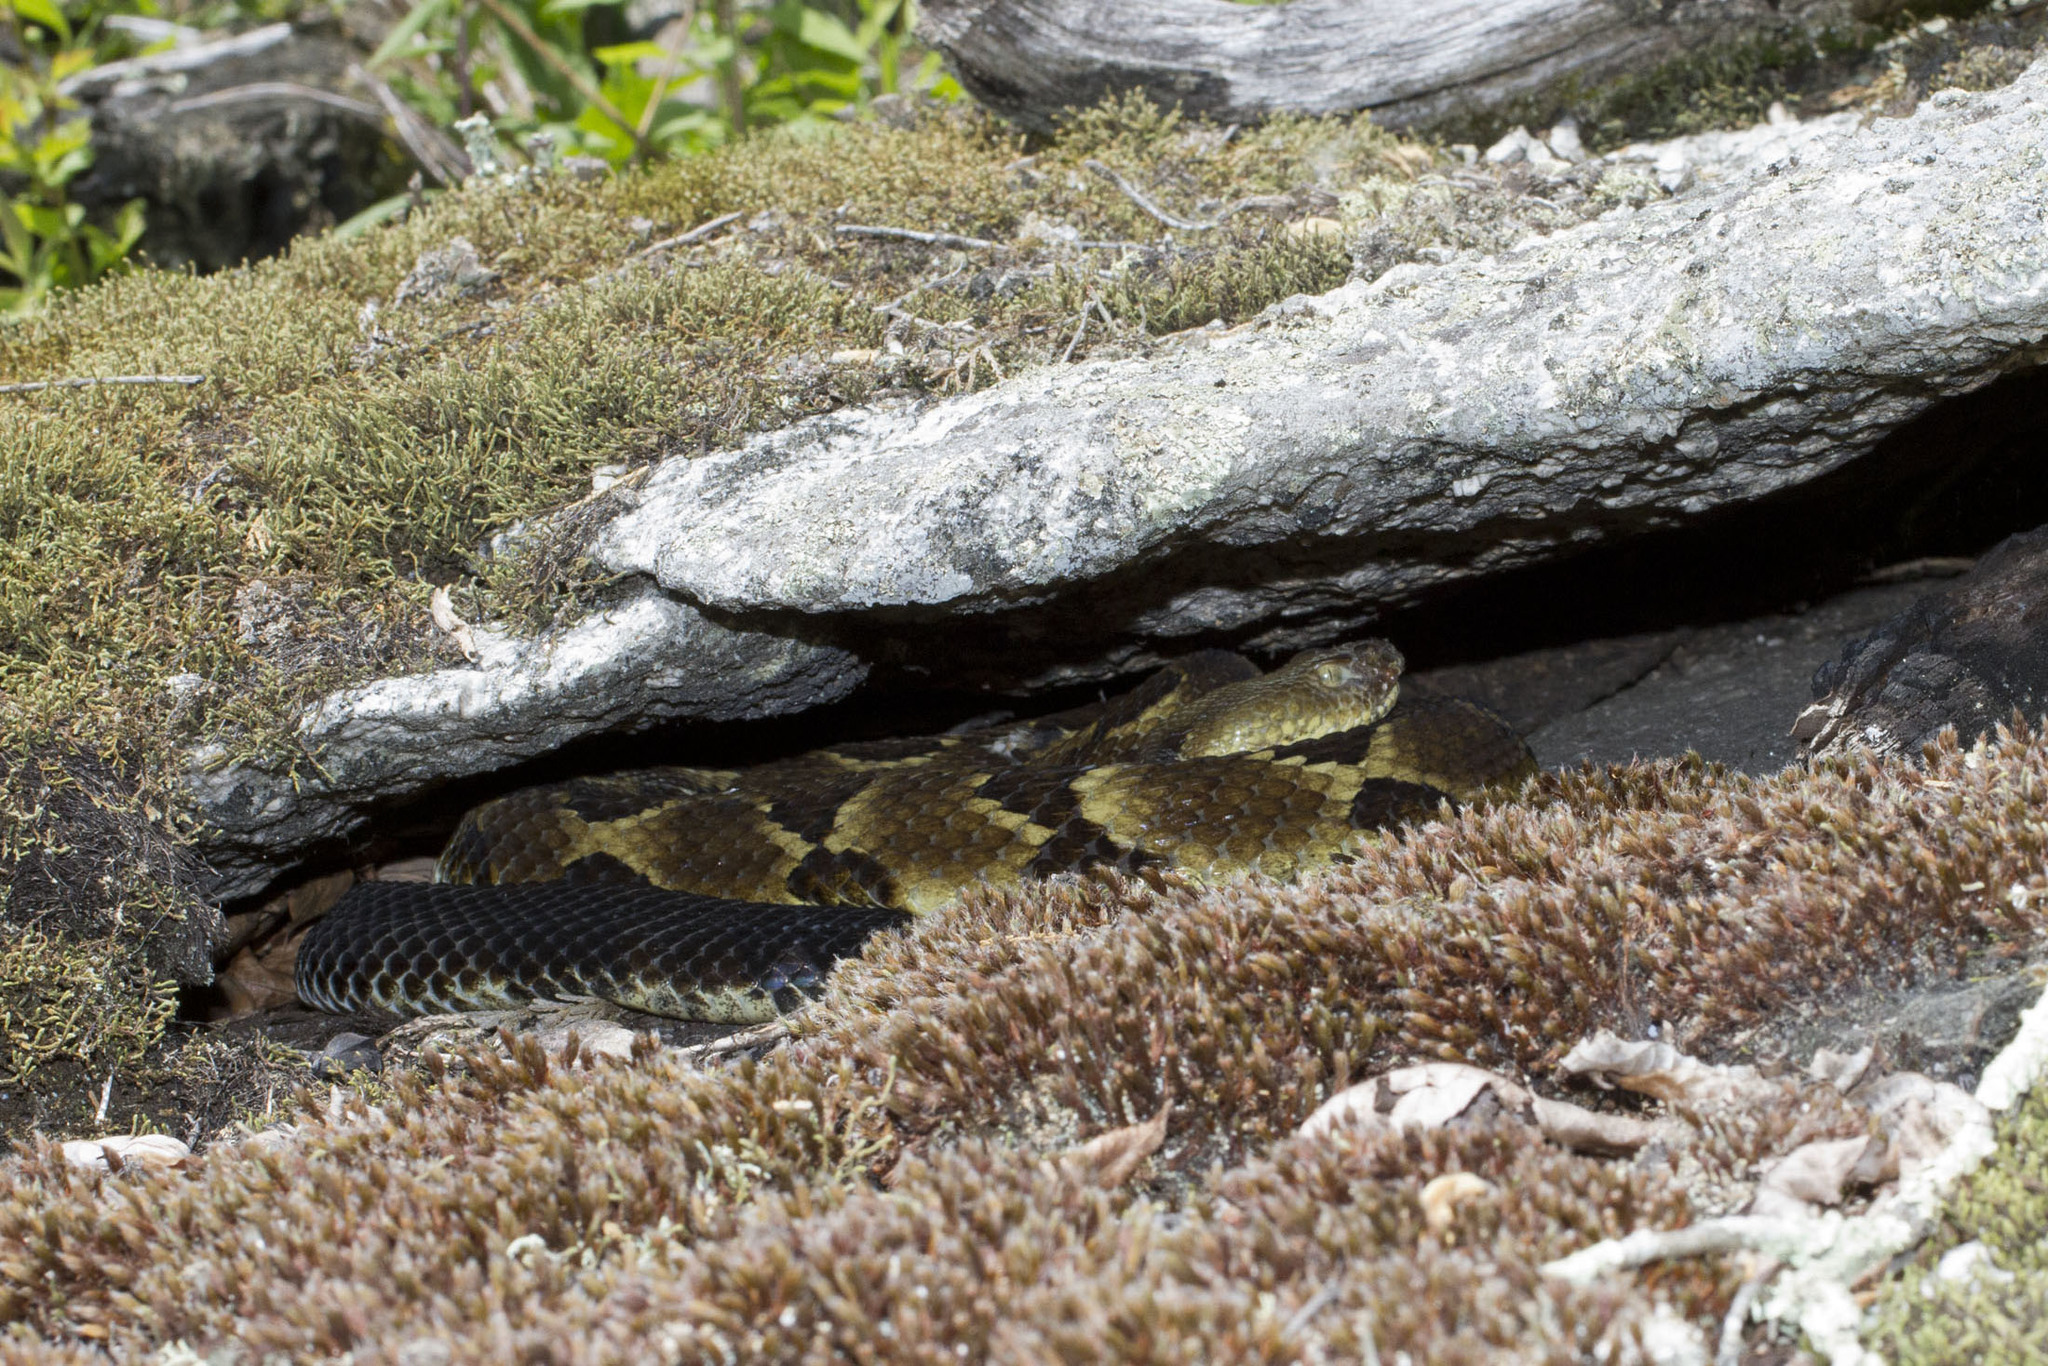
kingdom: Animalia
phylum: Chordata
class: Squamata
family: Viperidae
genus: Crotalus
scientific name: Crotalus horridus
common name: Timber rattlesnake
